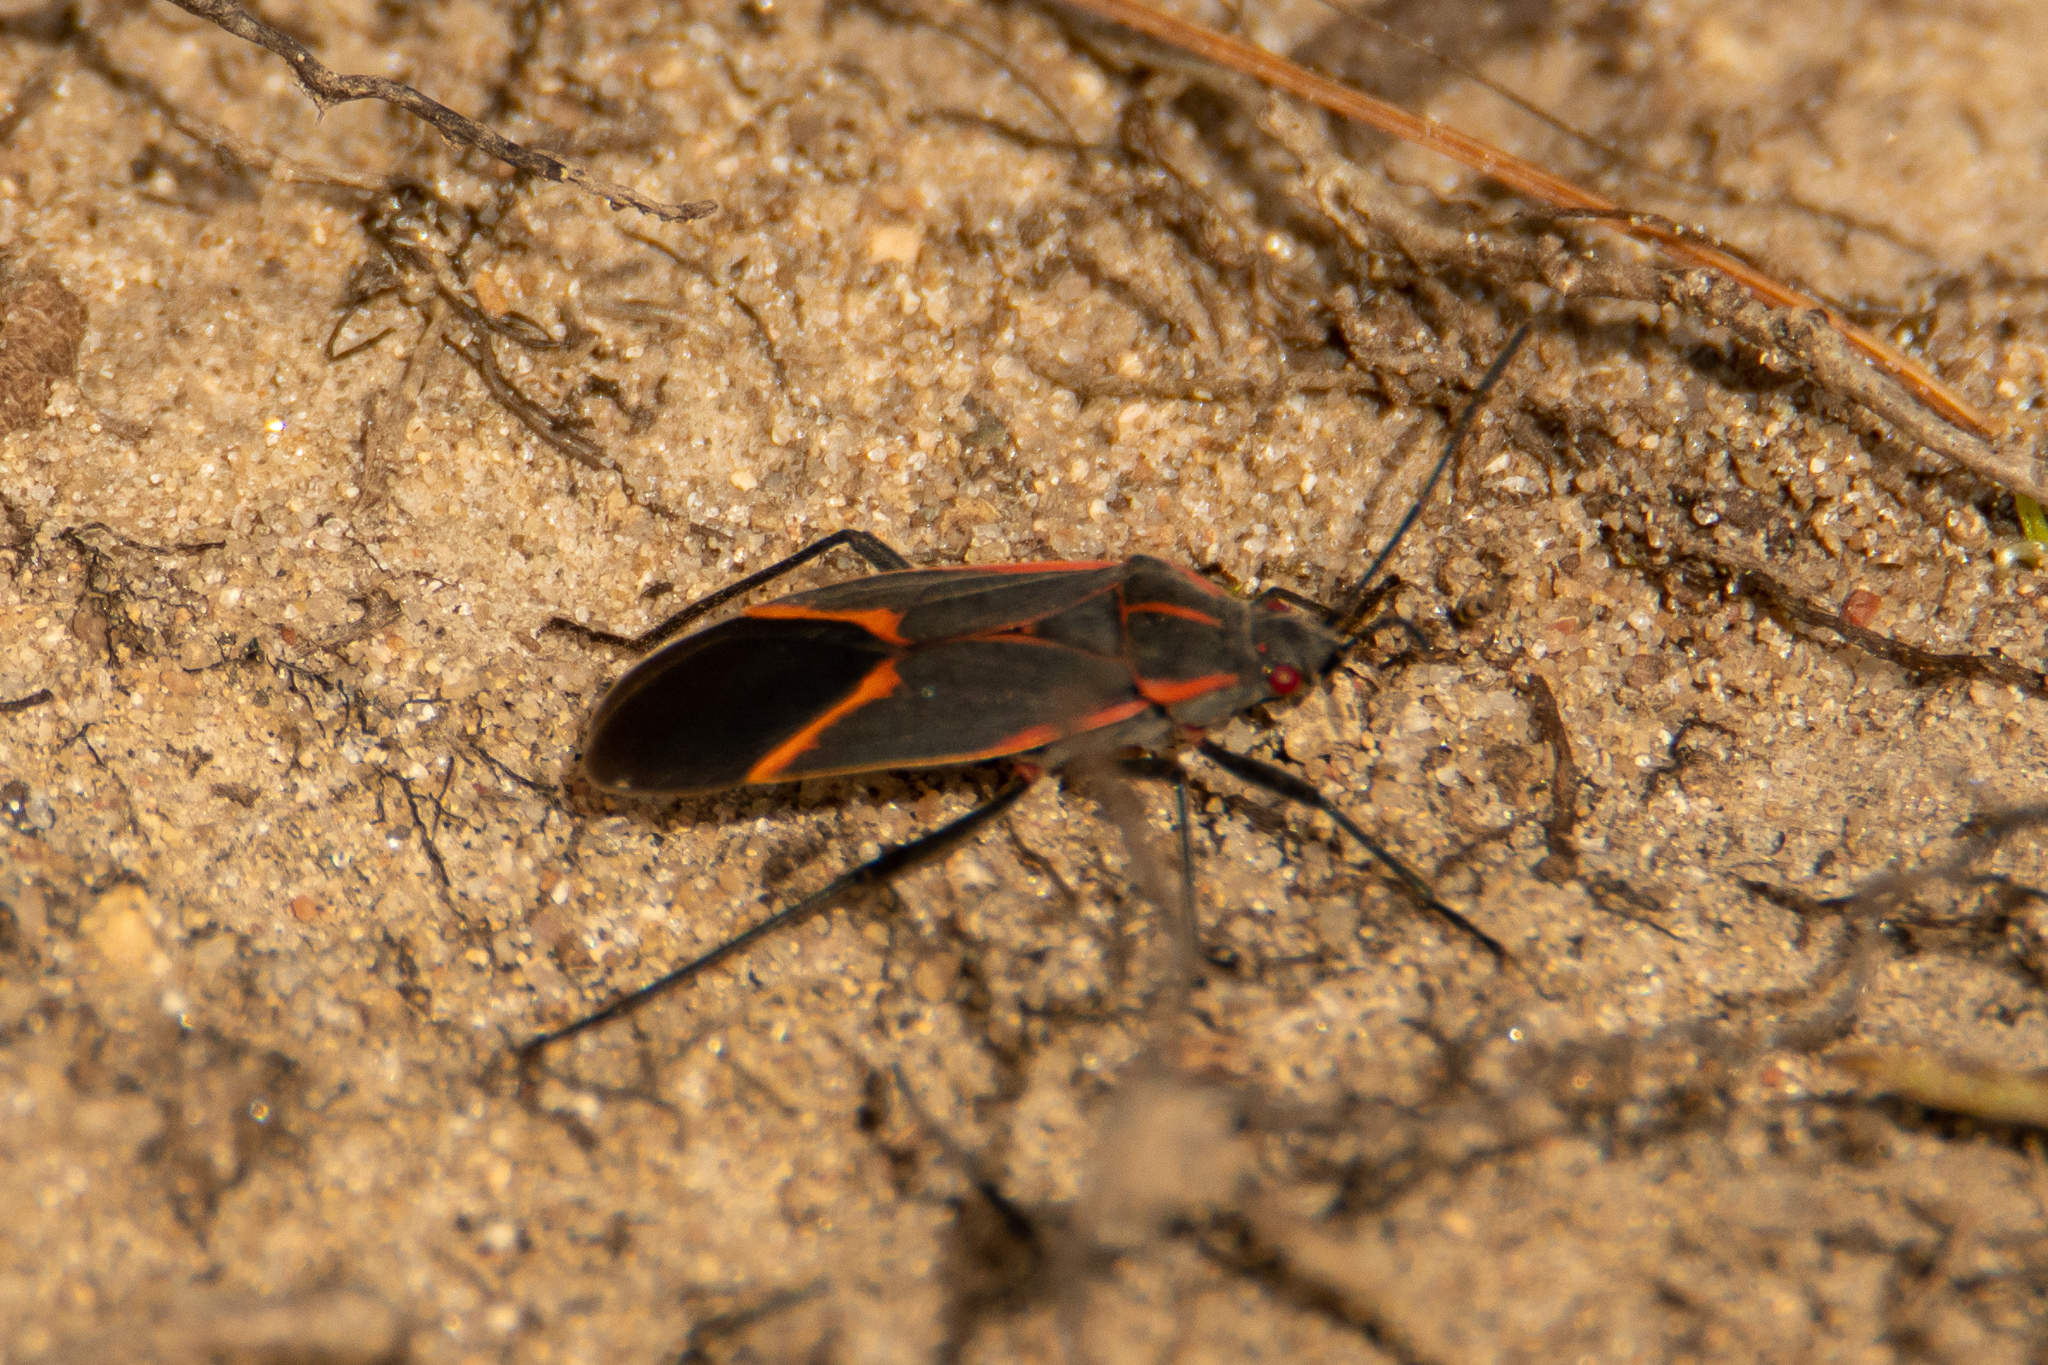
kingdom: Animalia
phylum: Arthropoda
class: Insecta
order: Hemiptera
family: Rhopalidae
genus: Boisea
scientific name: Boisea trivittata
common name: Boxelder bug
